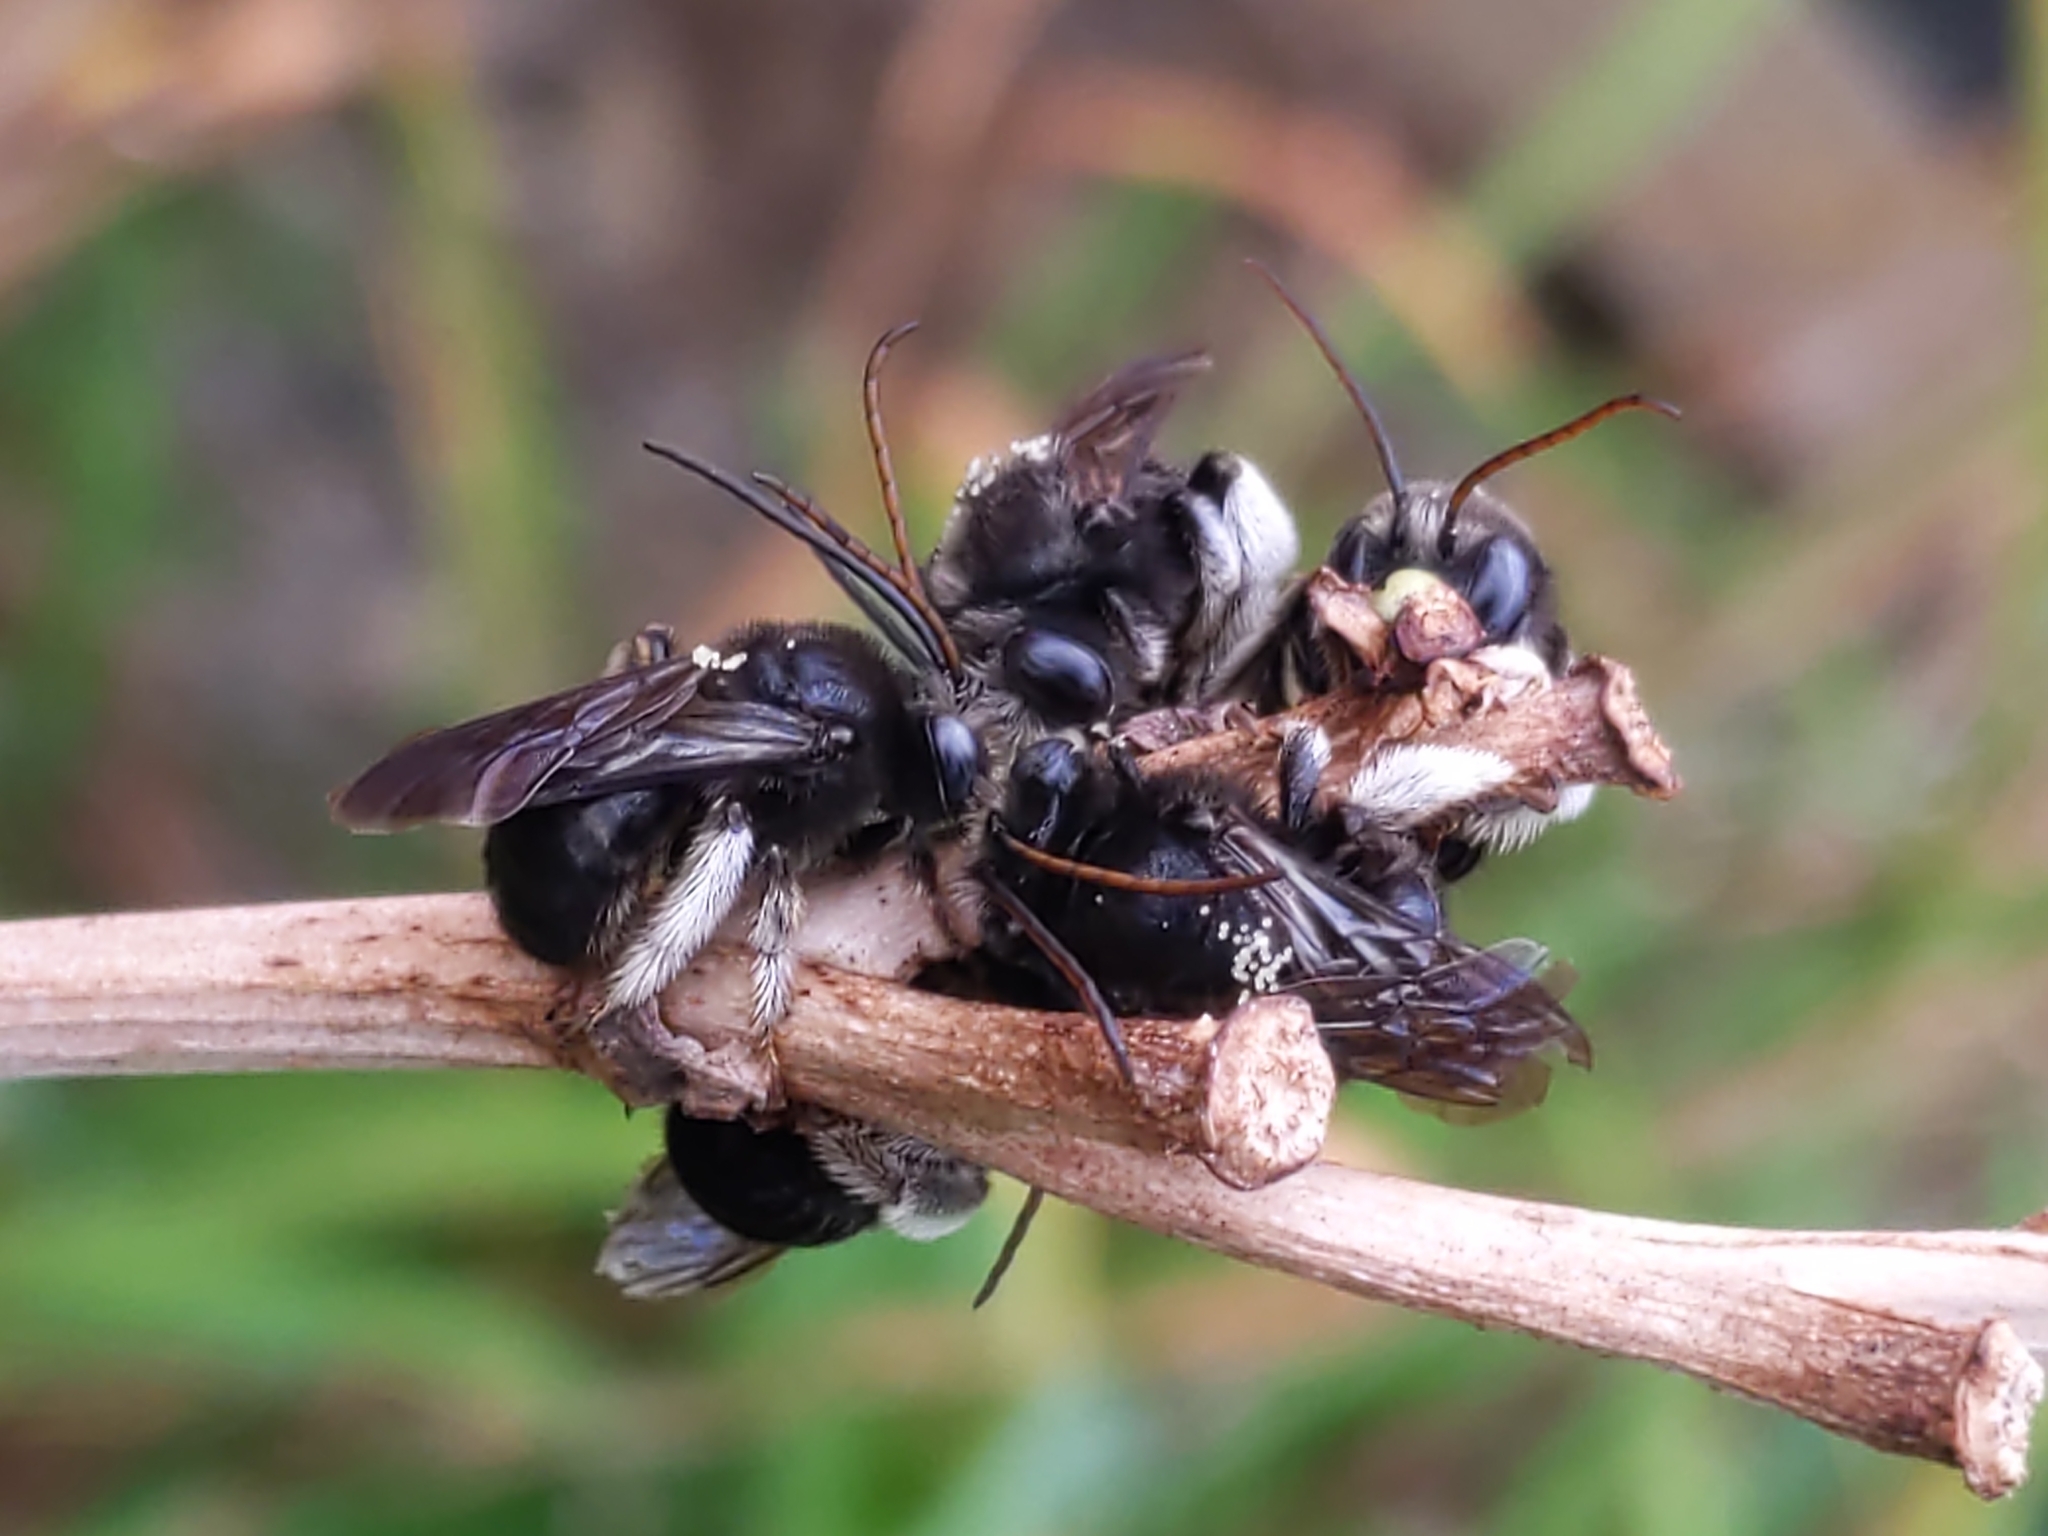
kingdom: Animalia
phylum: Arthropoda
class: Insecta
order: Hymenoptera
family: Apidae
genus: Melissodes
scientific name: Melissodes bimaculatus
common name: Two-spotted long-horned bee
